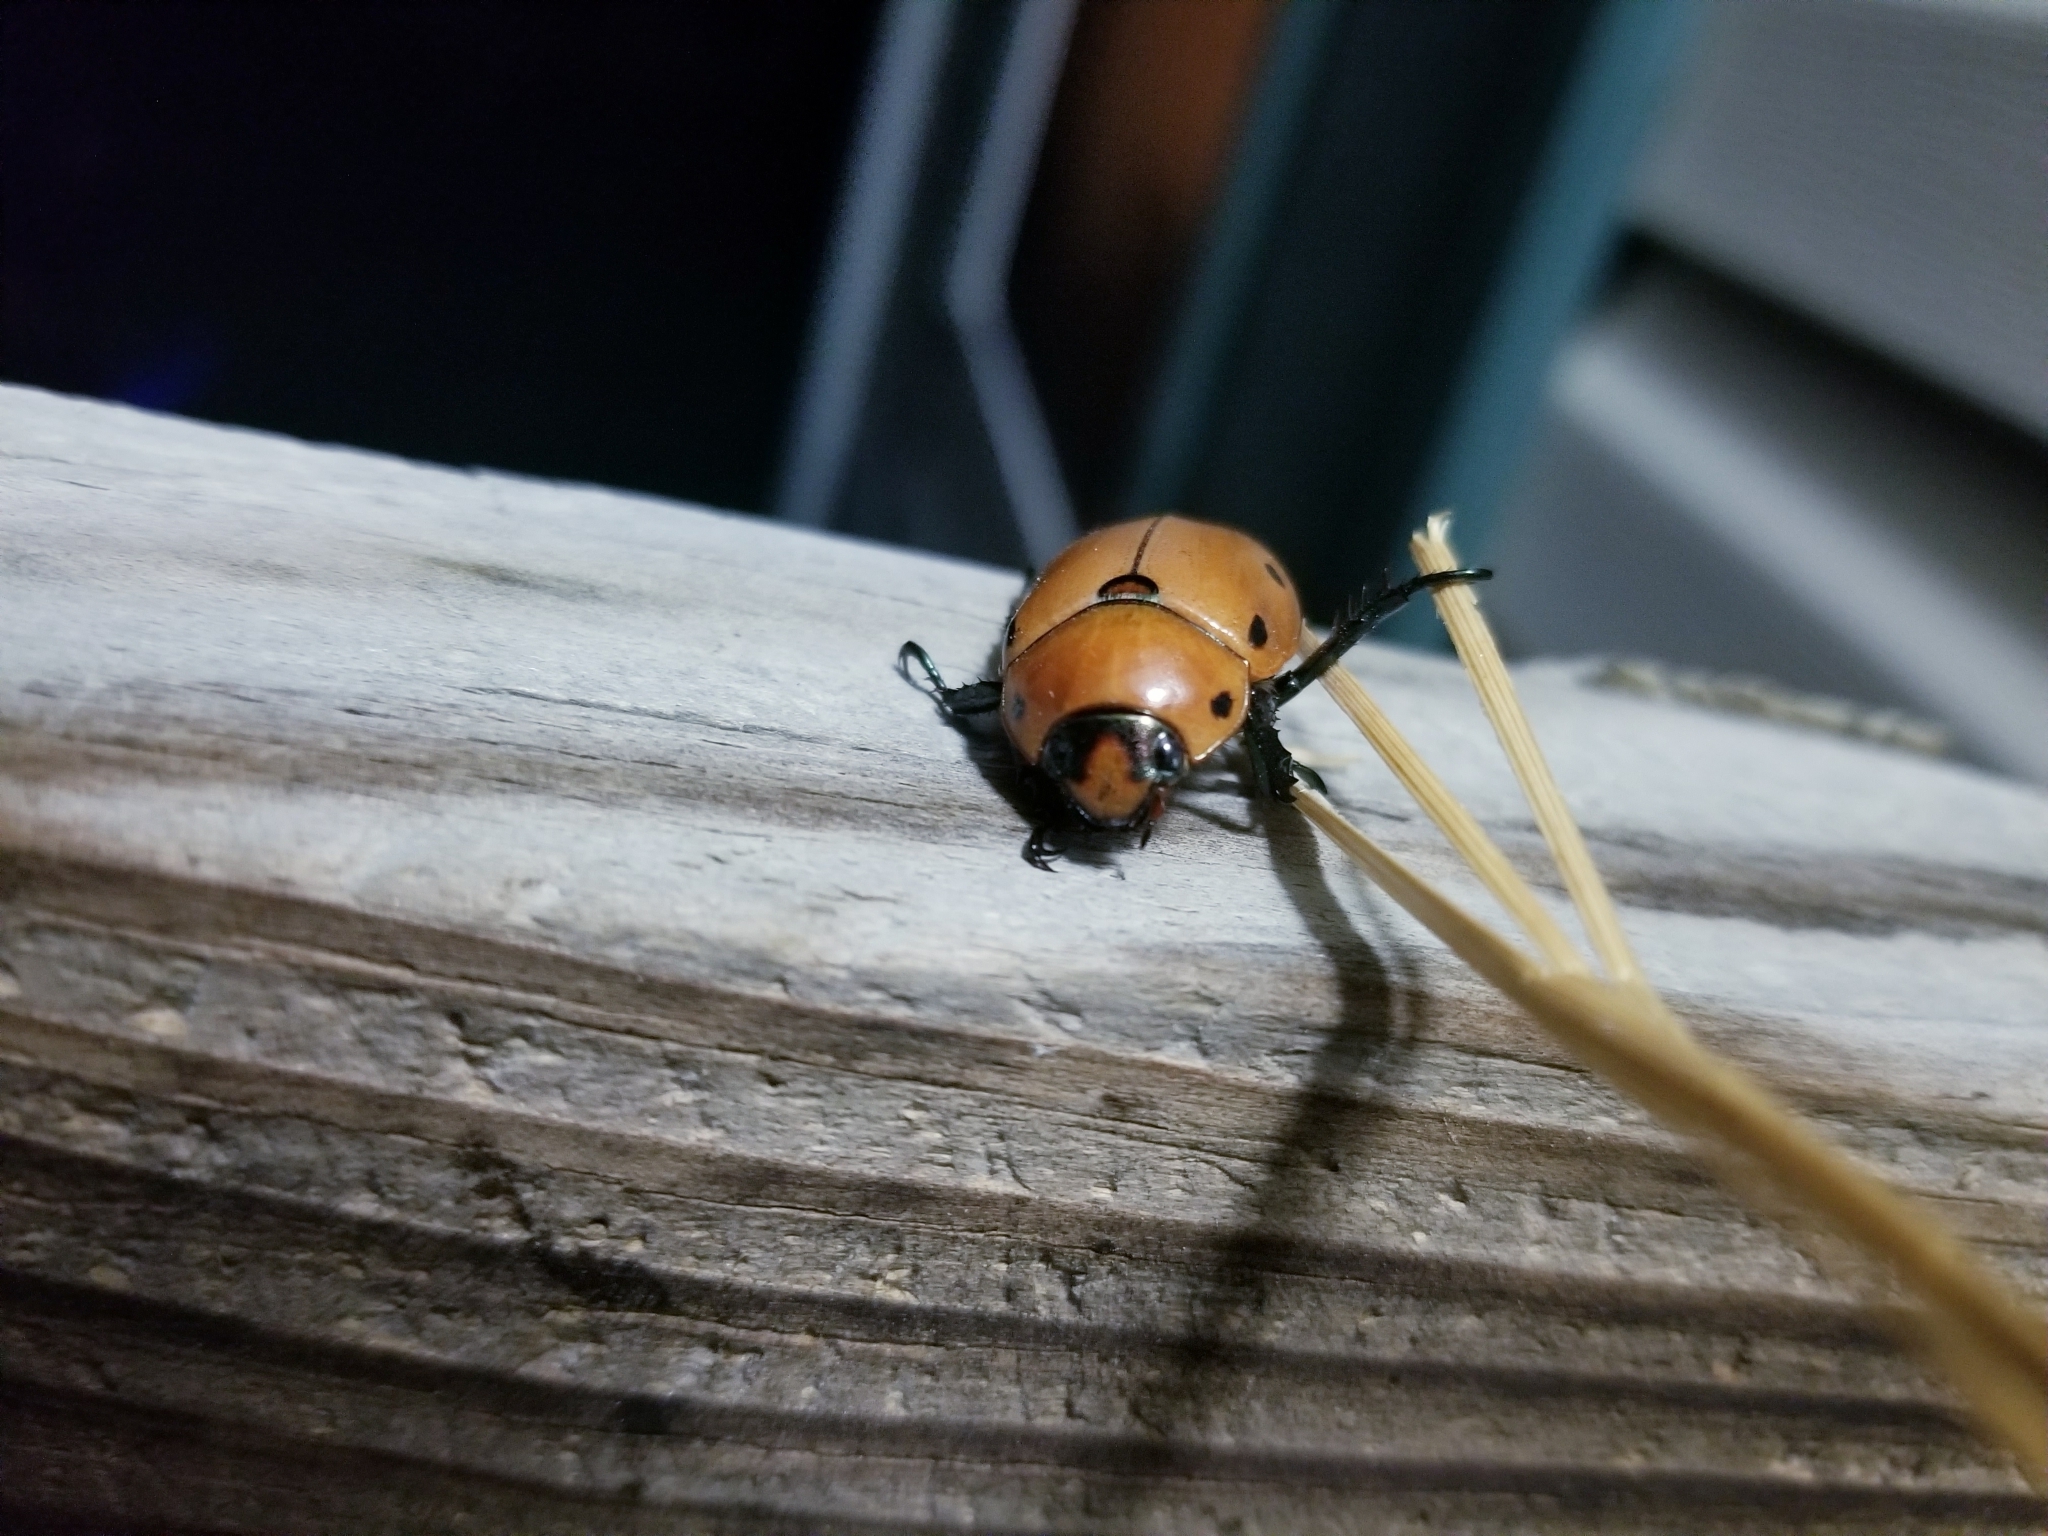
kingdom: Animalia
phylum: Arthropoda
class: Insecta
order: Coleoptera
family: Scarabaeidae
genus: Pelidnota
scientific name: Pelidnota punctata
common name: Grapevine beetle
